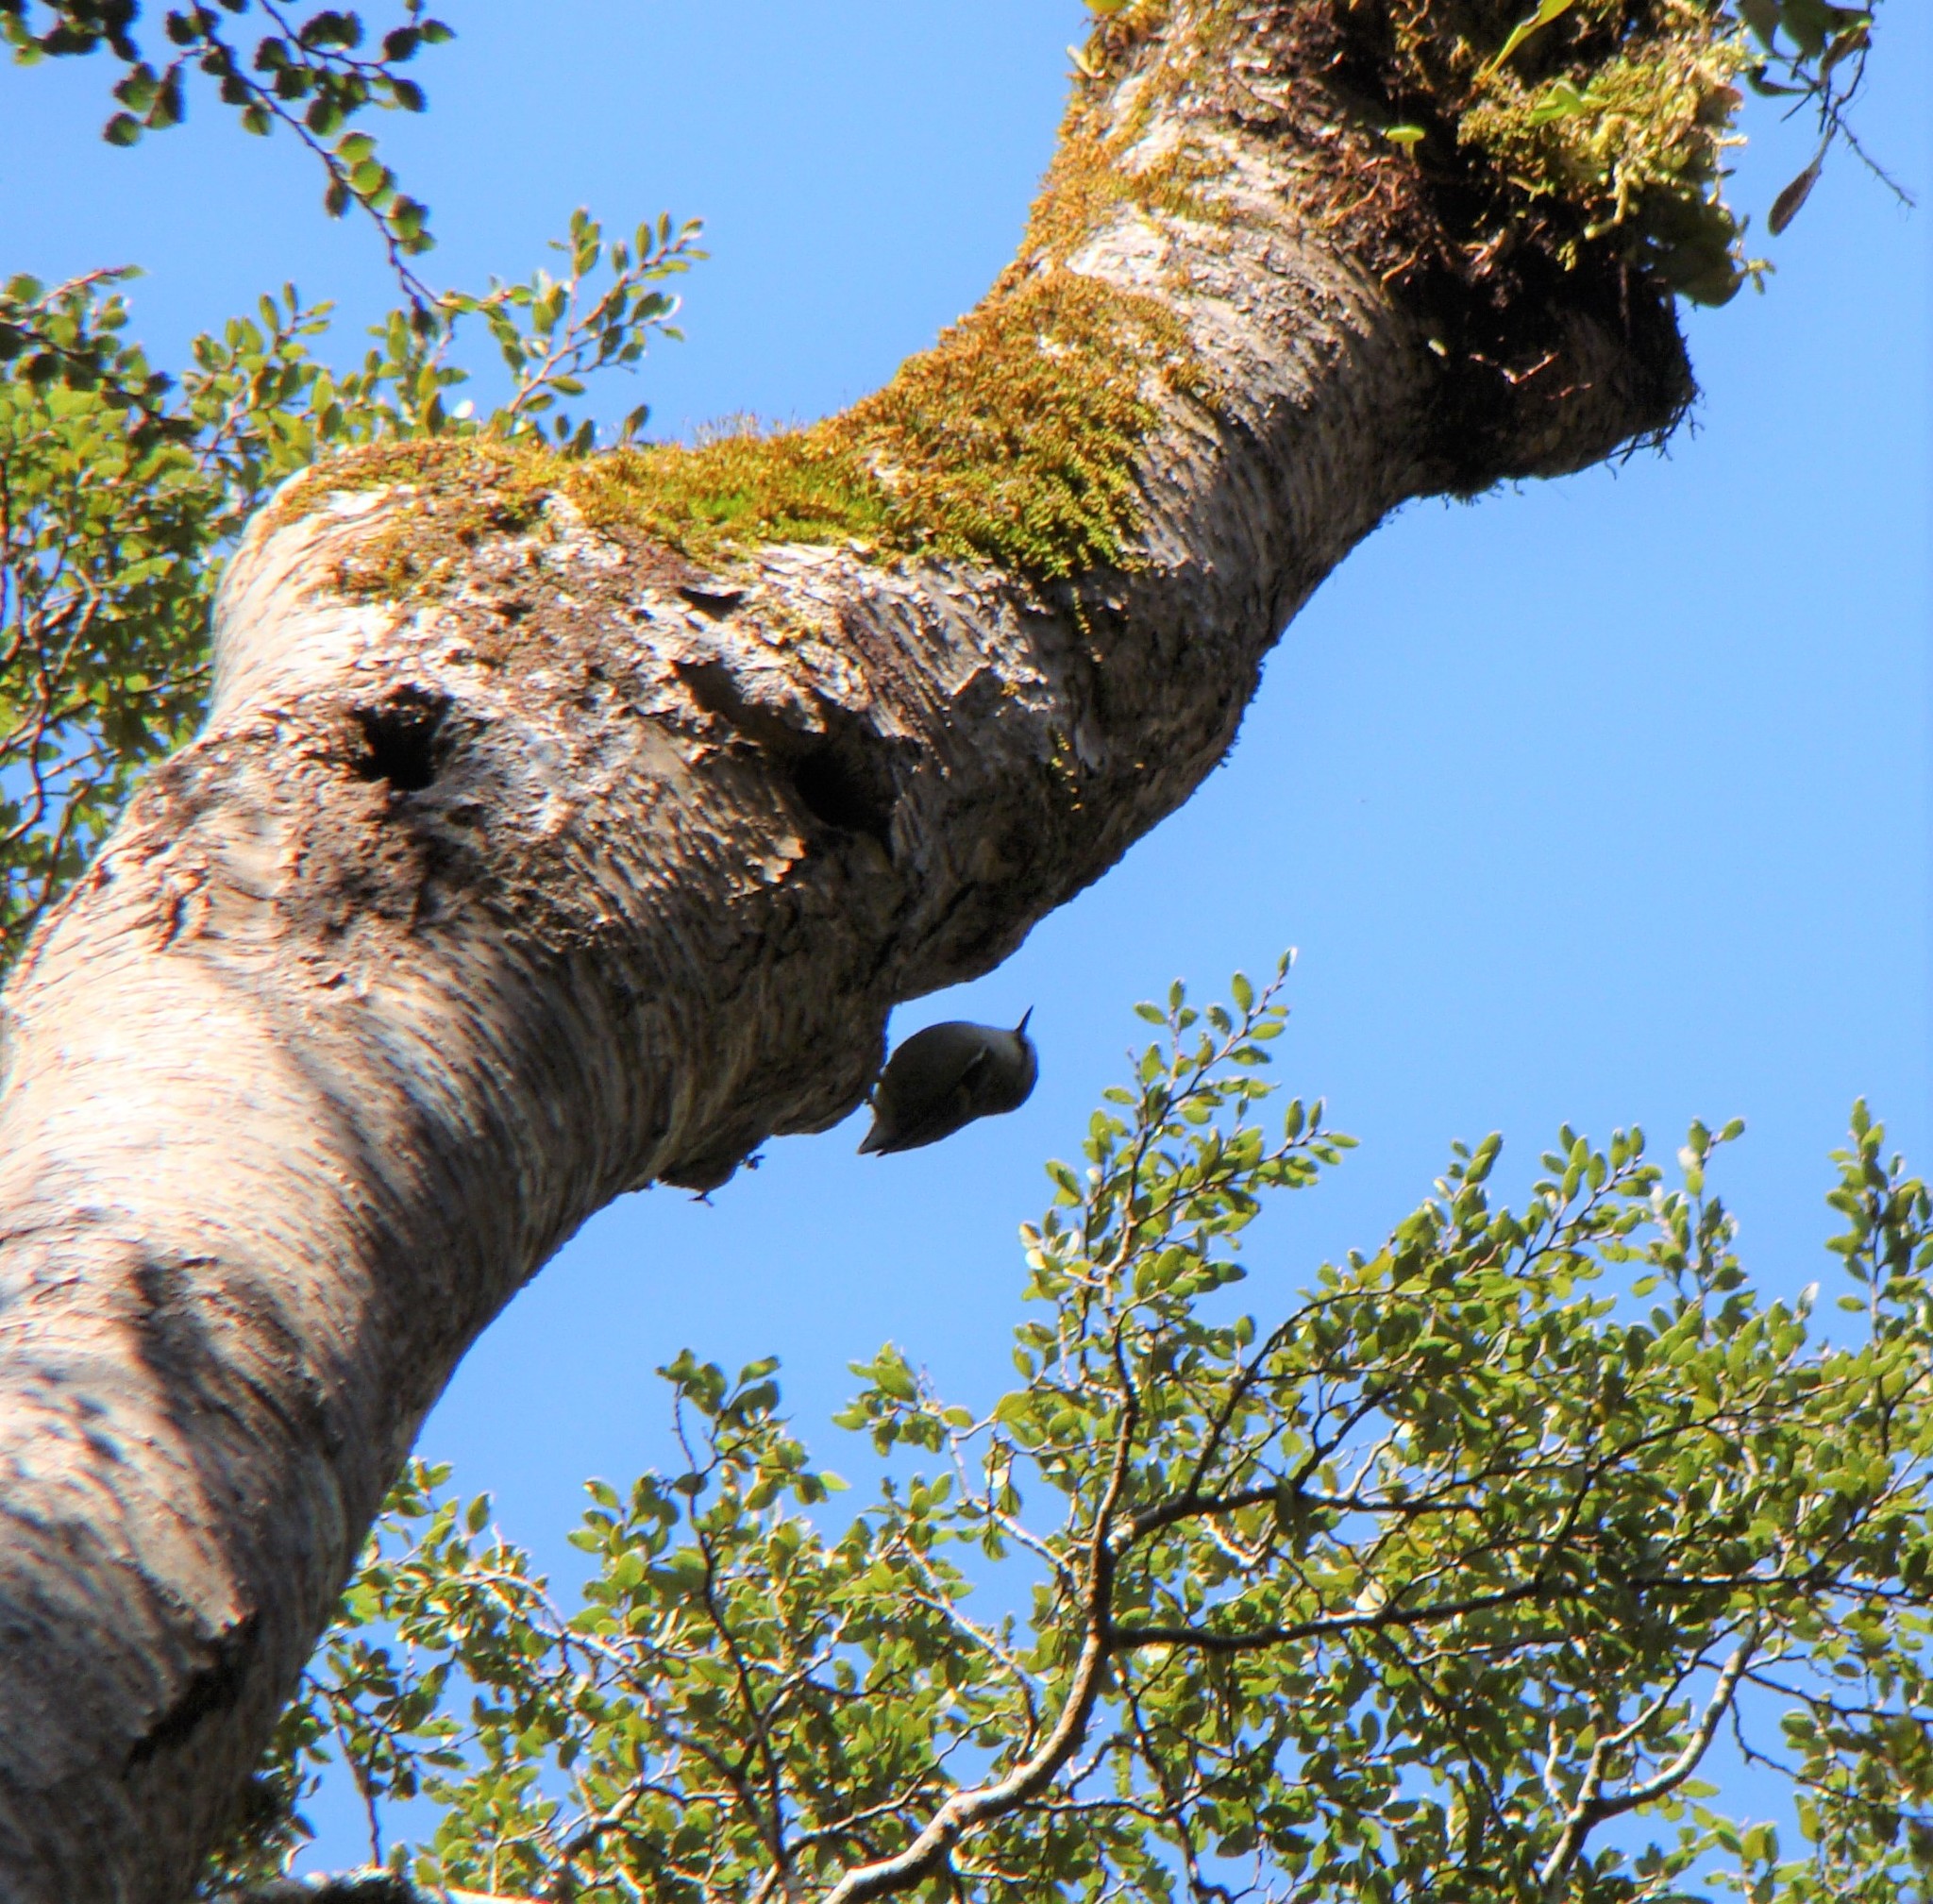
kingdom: Animalia
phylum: Chordata
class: Aves
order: Passeriformes
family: Acanthisittidae
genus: Acanthisitta
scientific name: Acanthisitta chloris
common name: Rifleman
